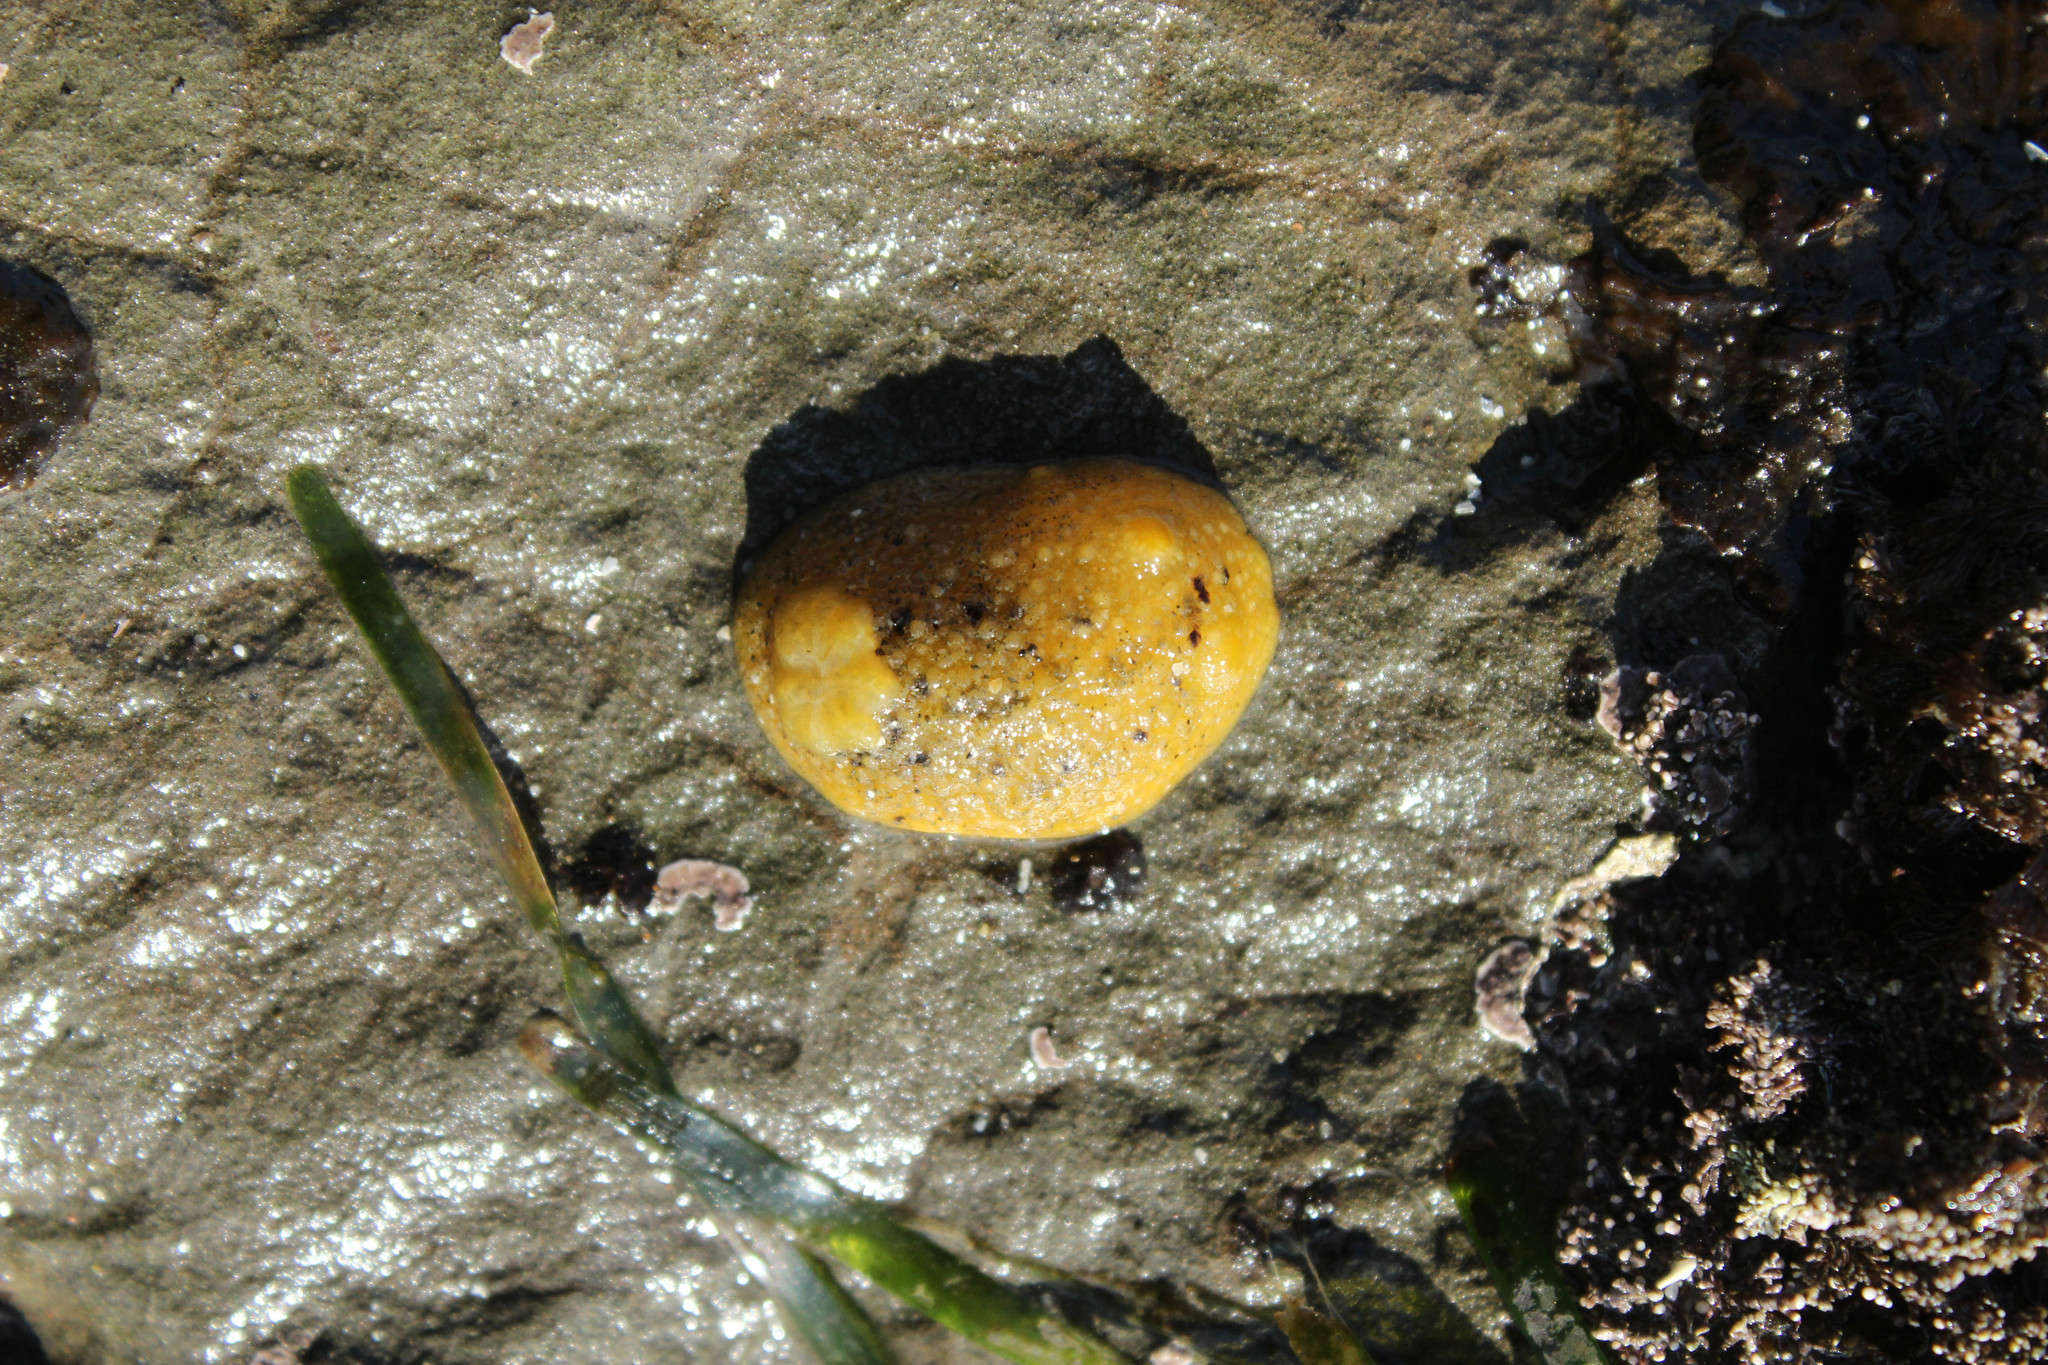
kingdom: Animalia
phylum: Mollusca
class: Gastropoda
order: Nudibranchia
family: Dorididae
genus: Doris
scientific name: Doris montereyensis
